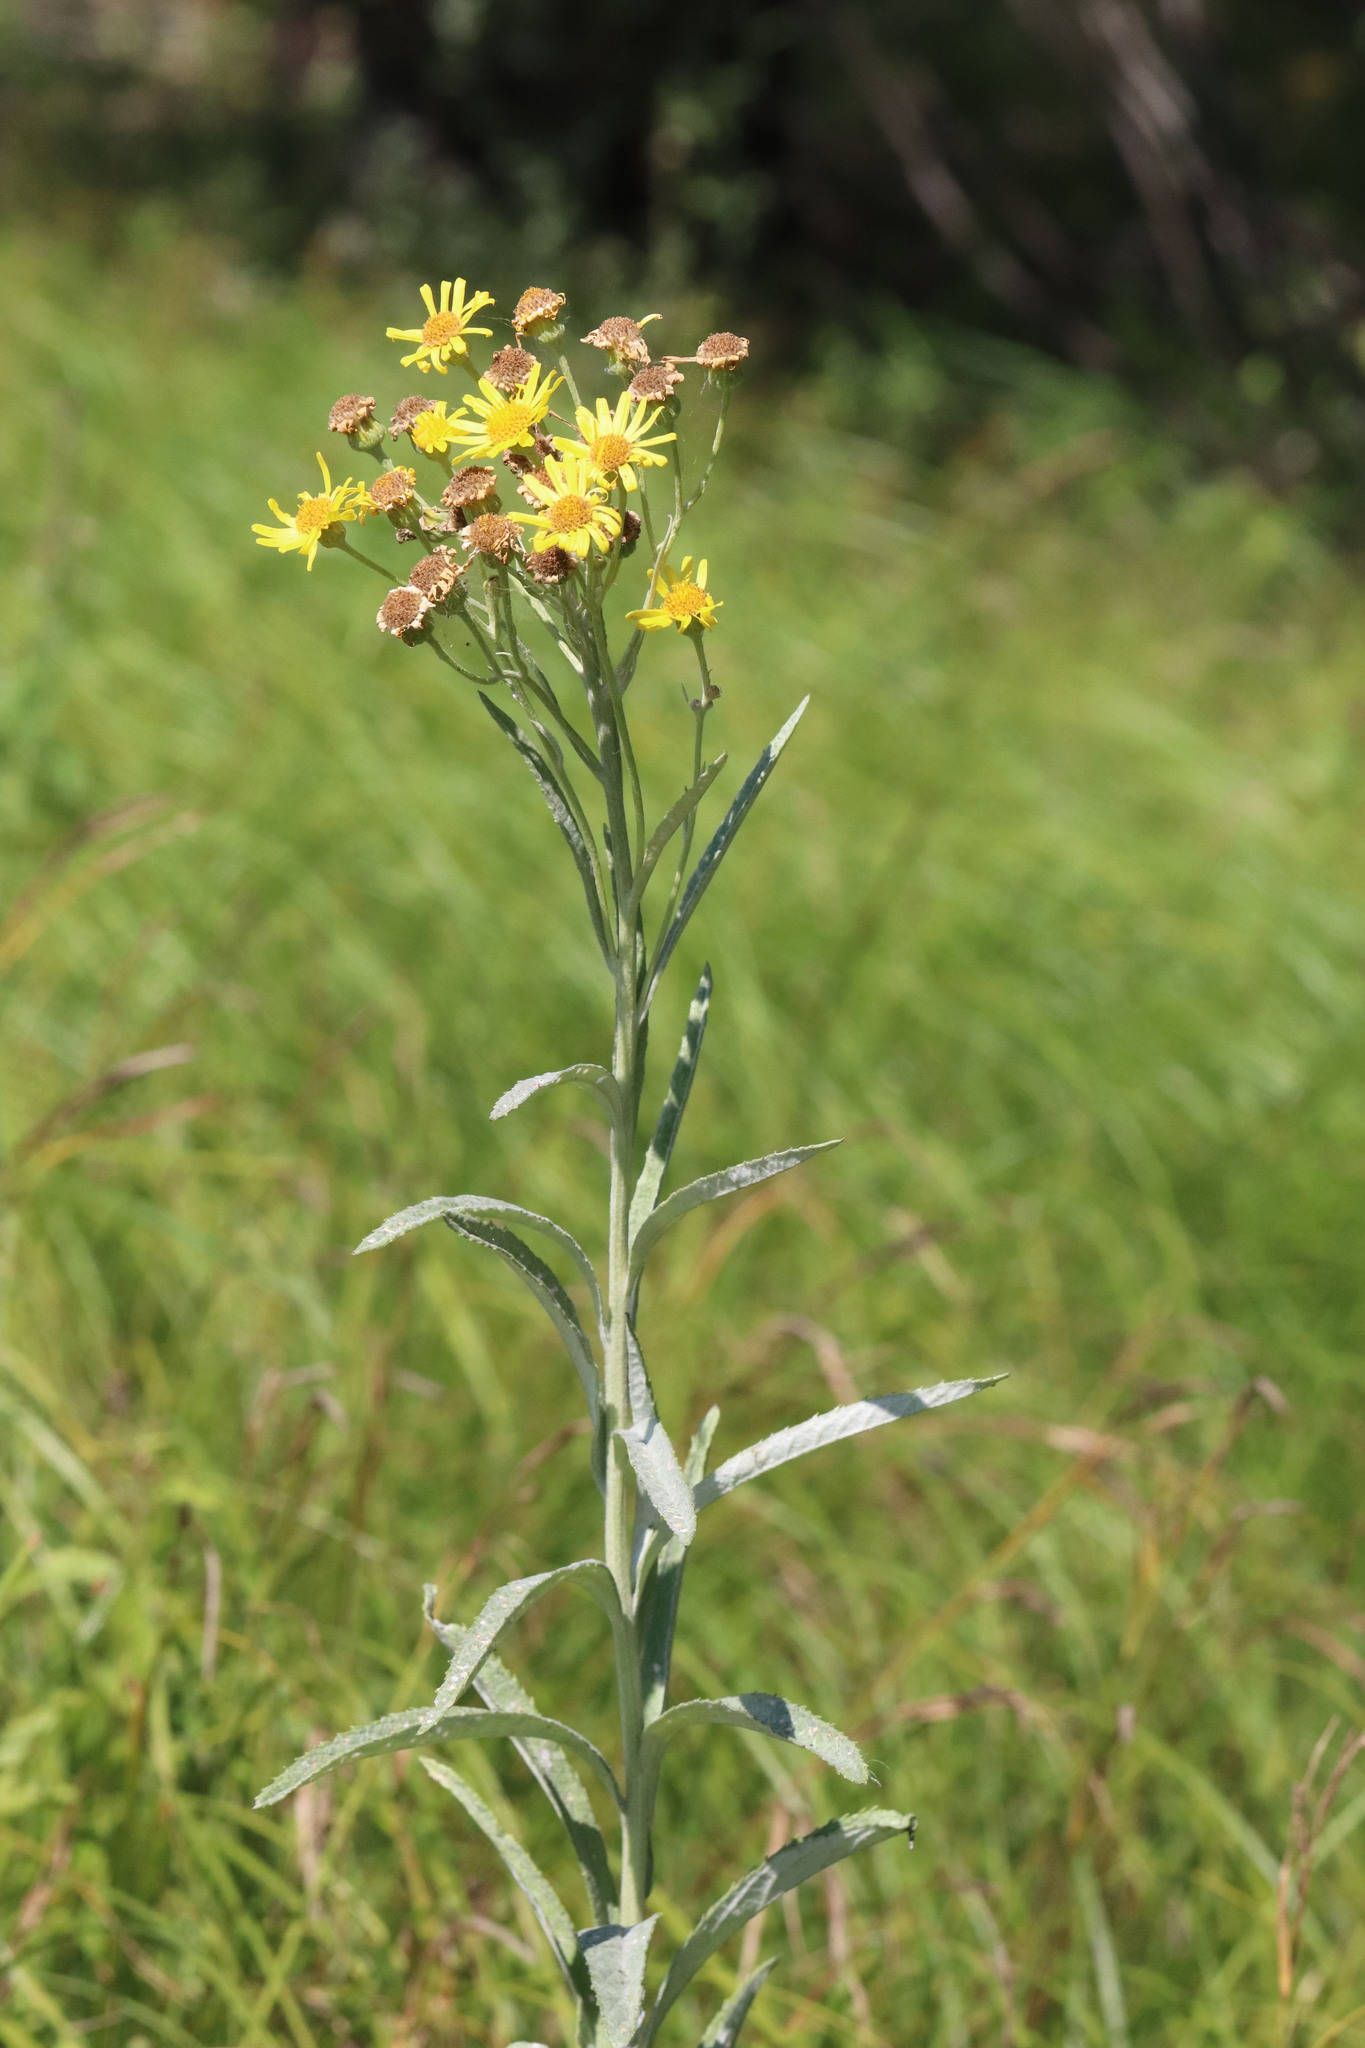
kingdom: Plantae
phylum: Tracheophyta
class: Magnoliopsida
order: Asterales
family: Asteraceae
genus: Jacobaea
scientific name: Jacobaea paludosa
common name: Fen ragwort
